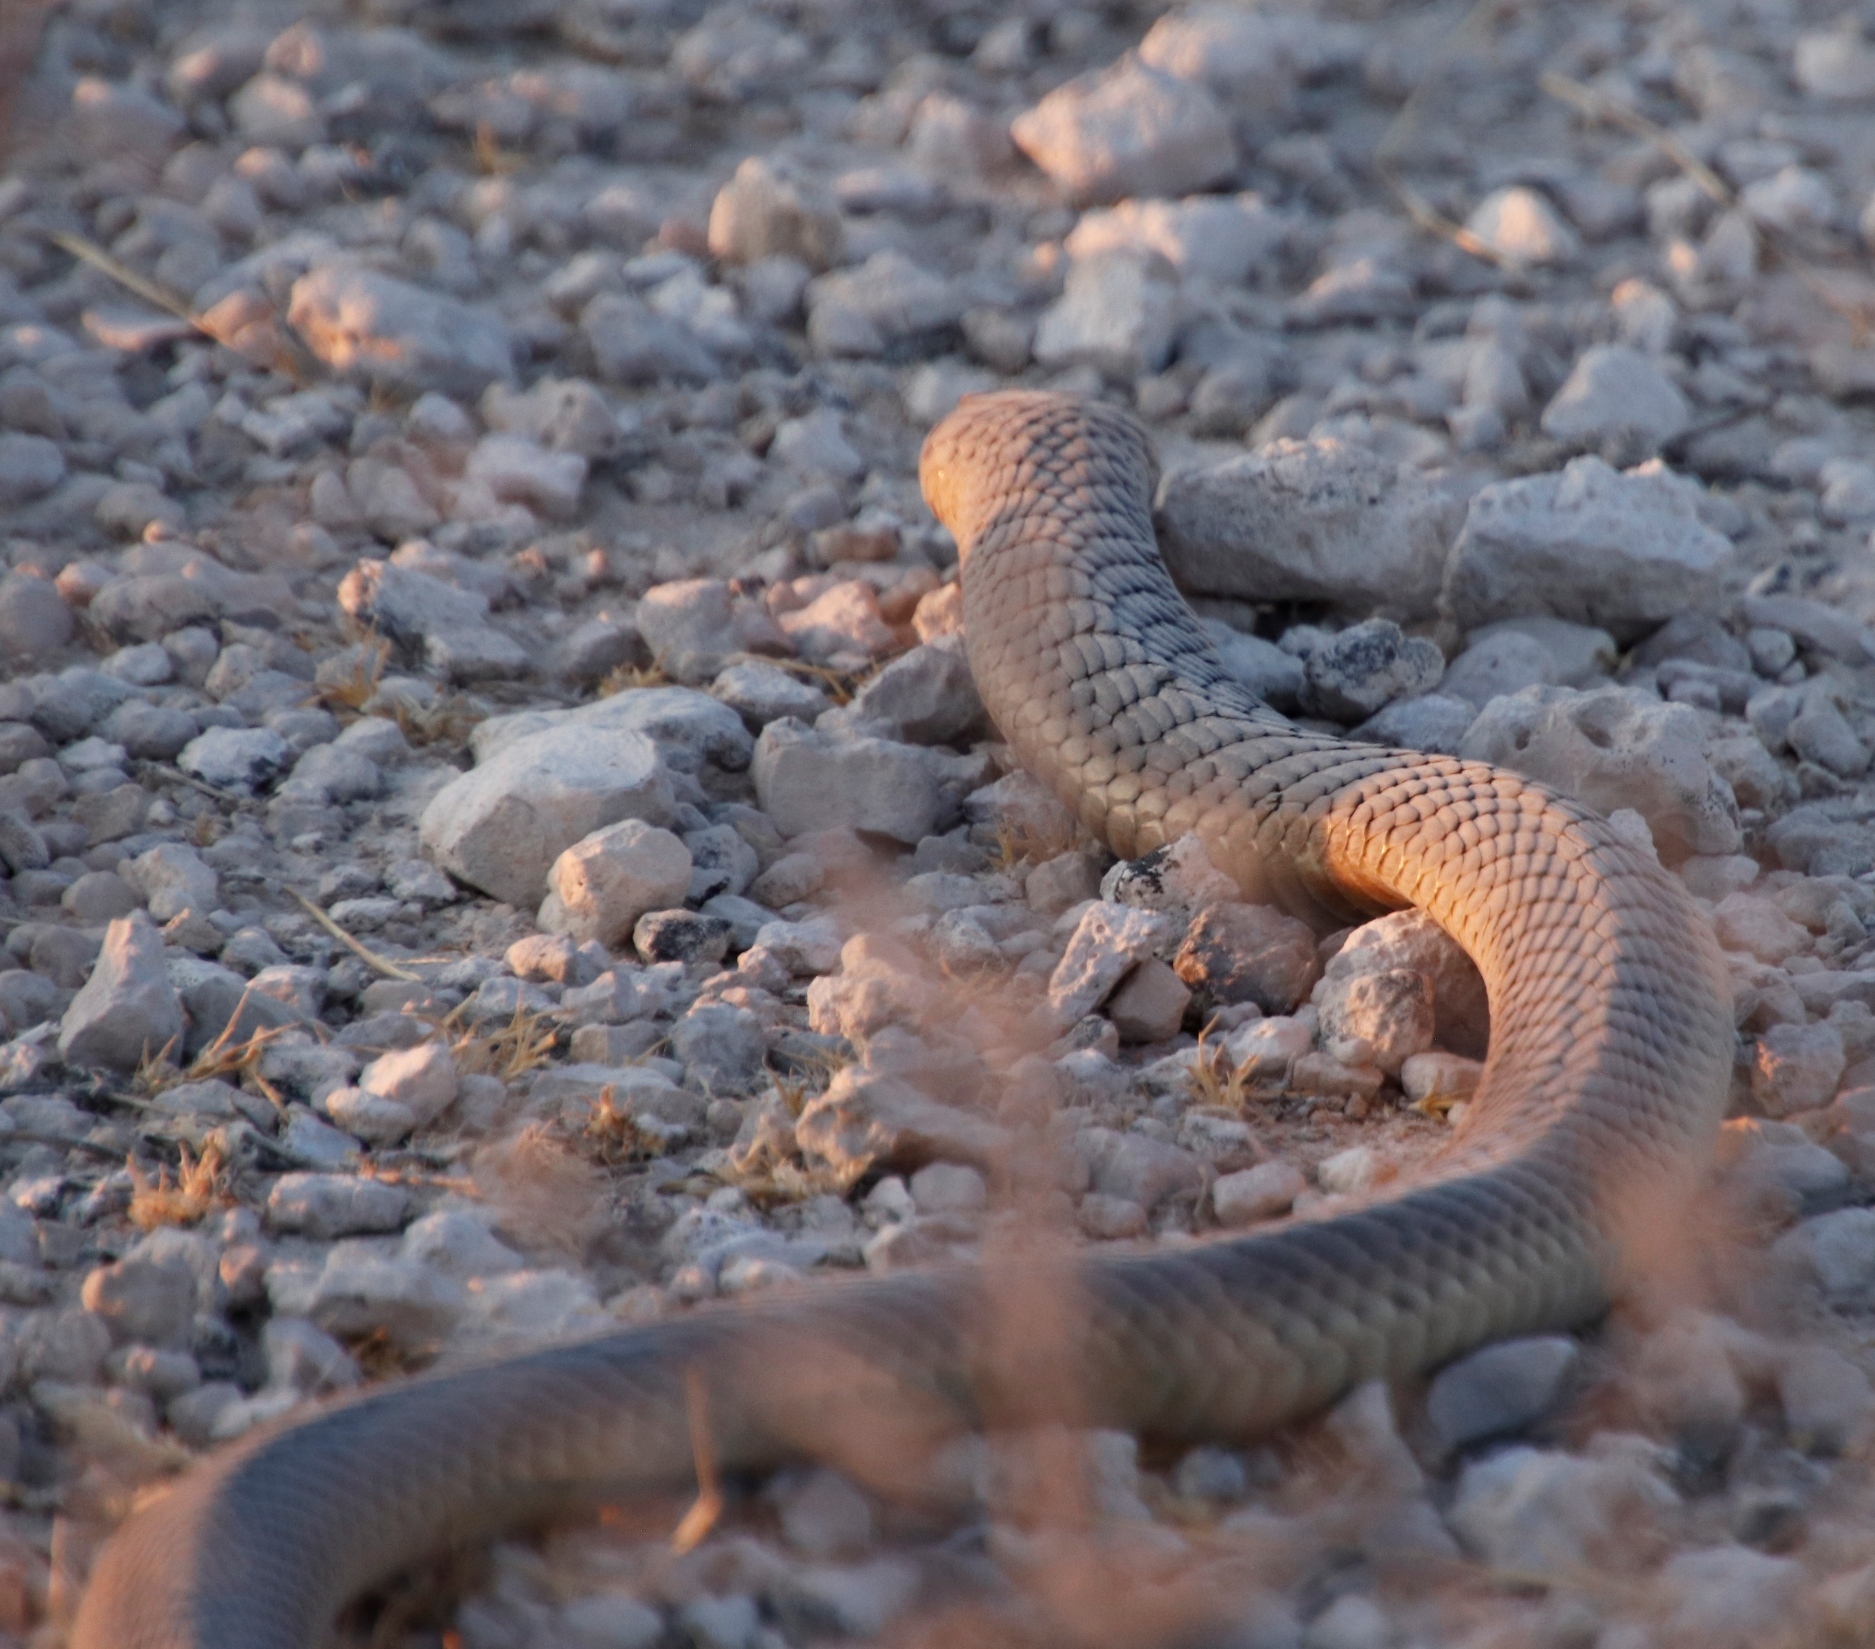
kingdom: Animalia
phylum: Chordata
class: Squamata
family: Elapidae
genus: Naja
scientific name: Naja anchietae
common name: Anchieta's cobra
